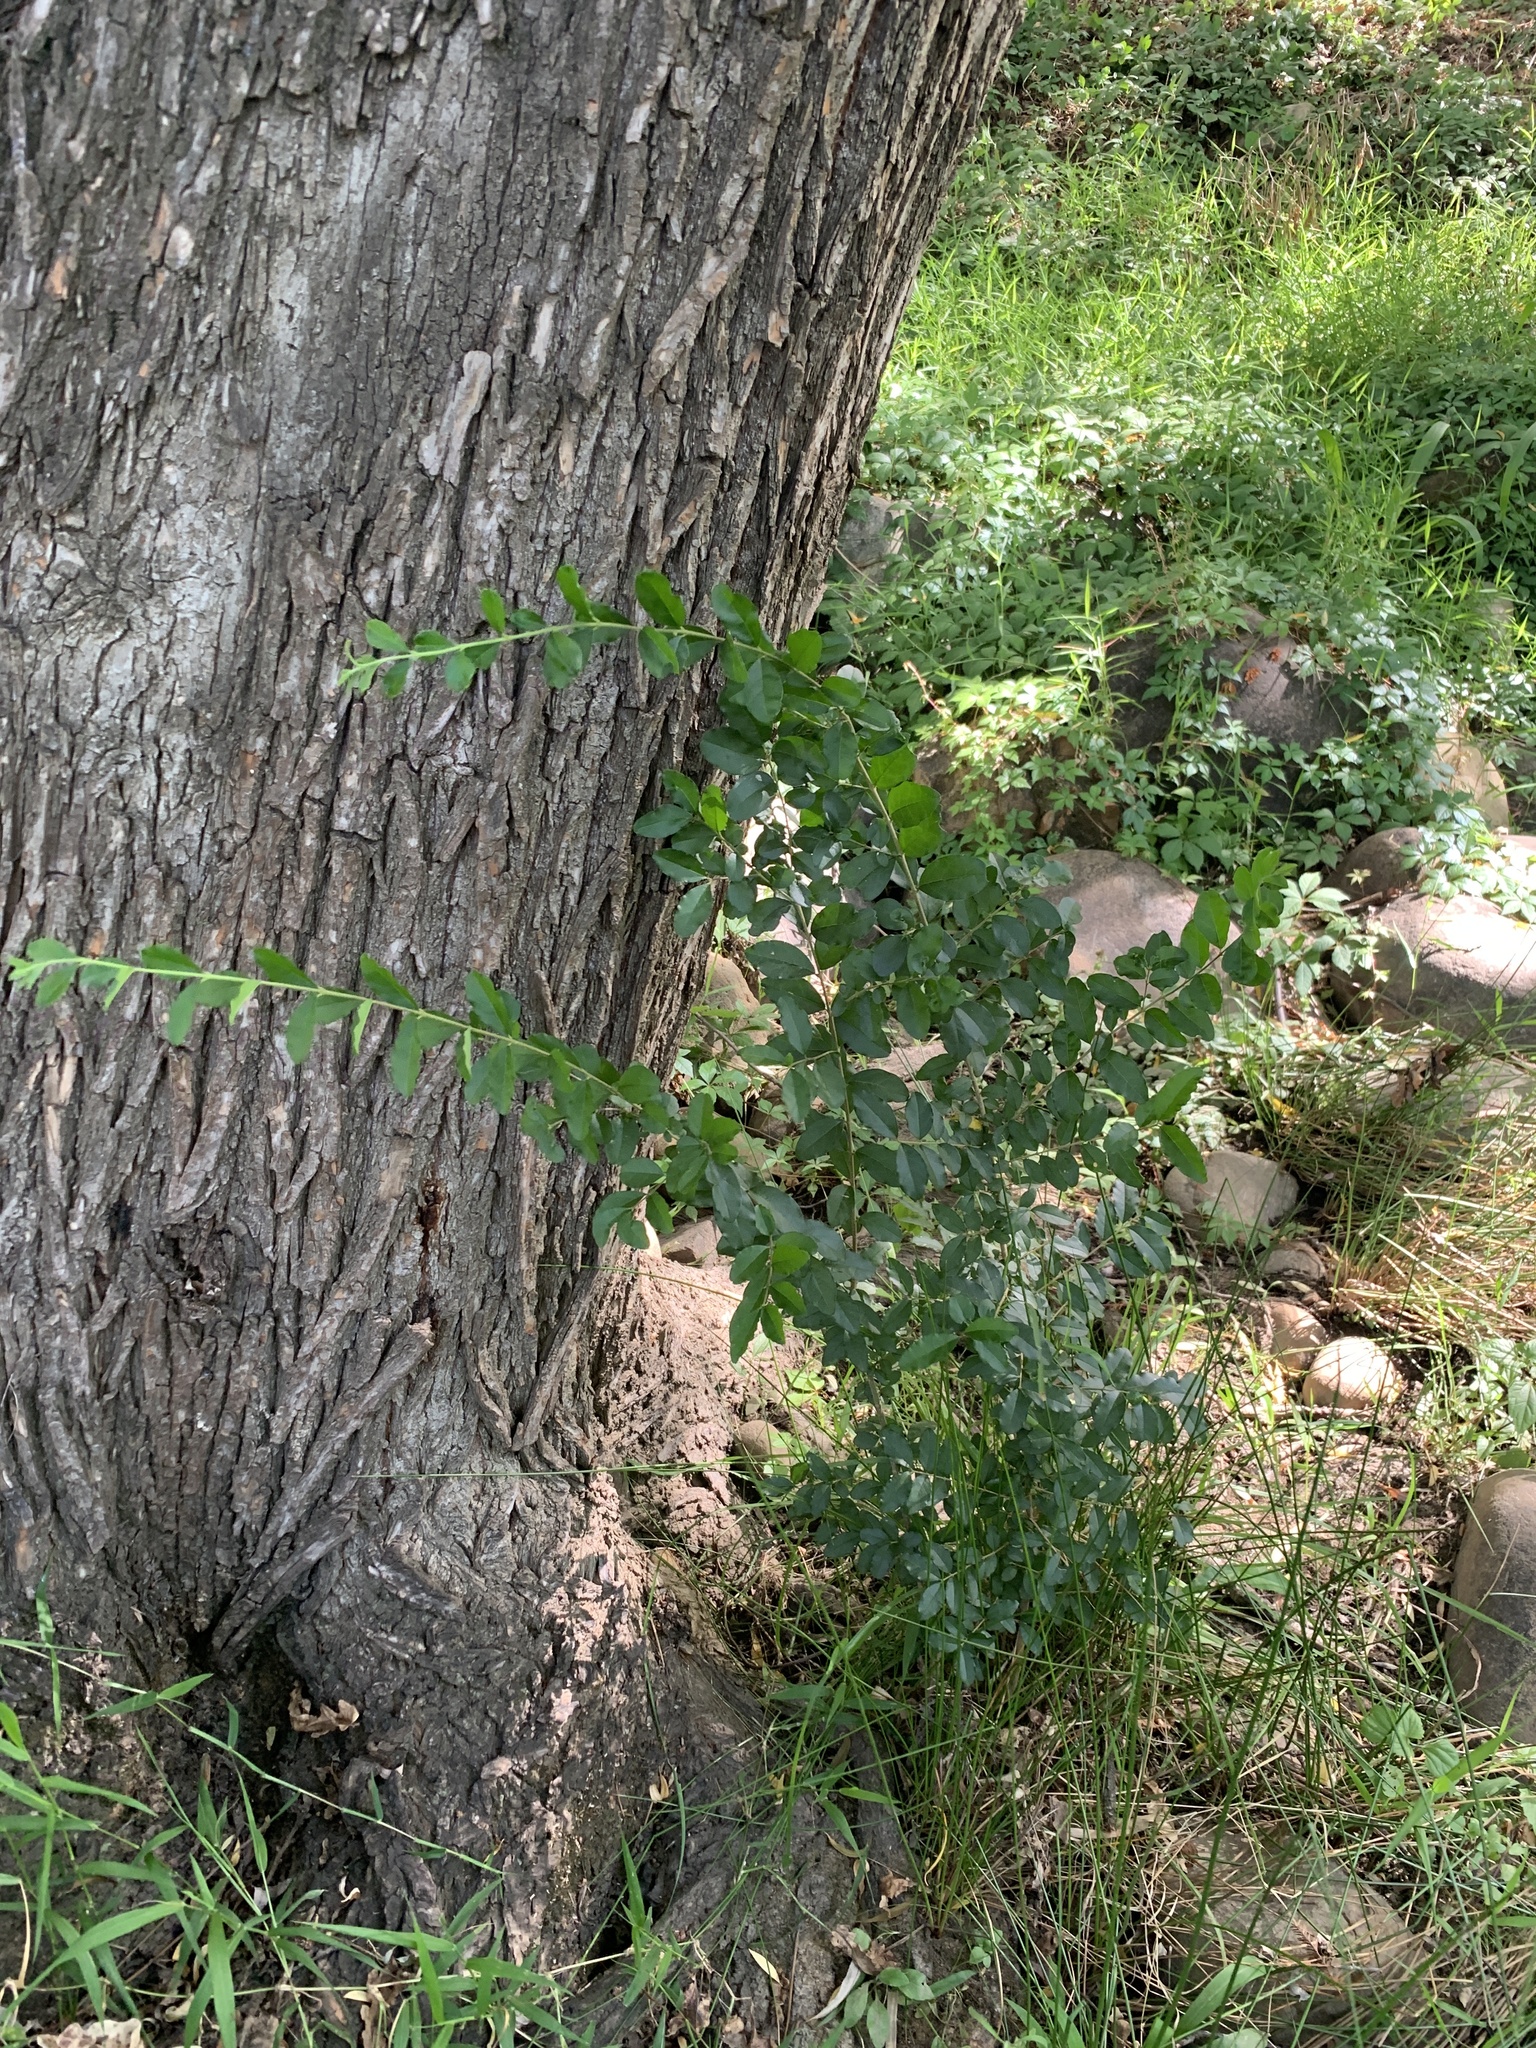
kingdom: Plantae
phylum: Tracheophyta
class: Magnoliopsida
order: Lamiales
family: Oleaceae
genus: Ligustrum
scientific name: Ligustrum sinense
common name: Chinese privet
